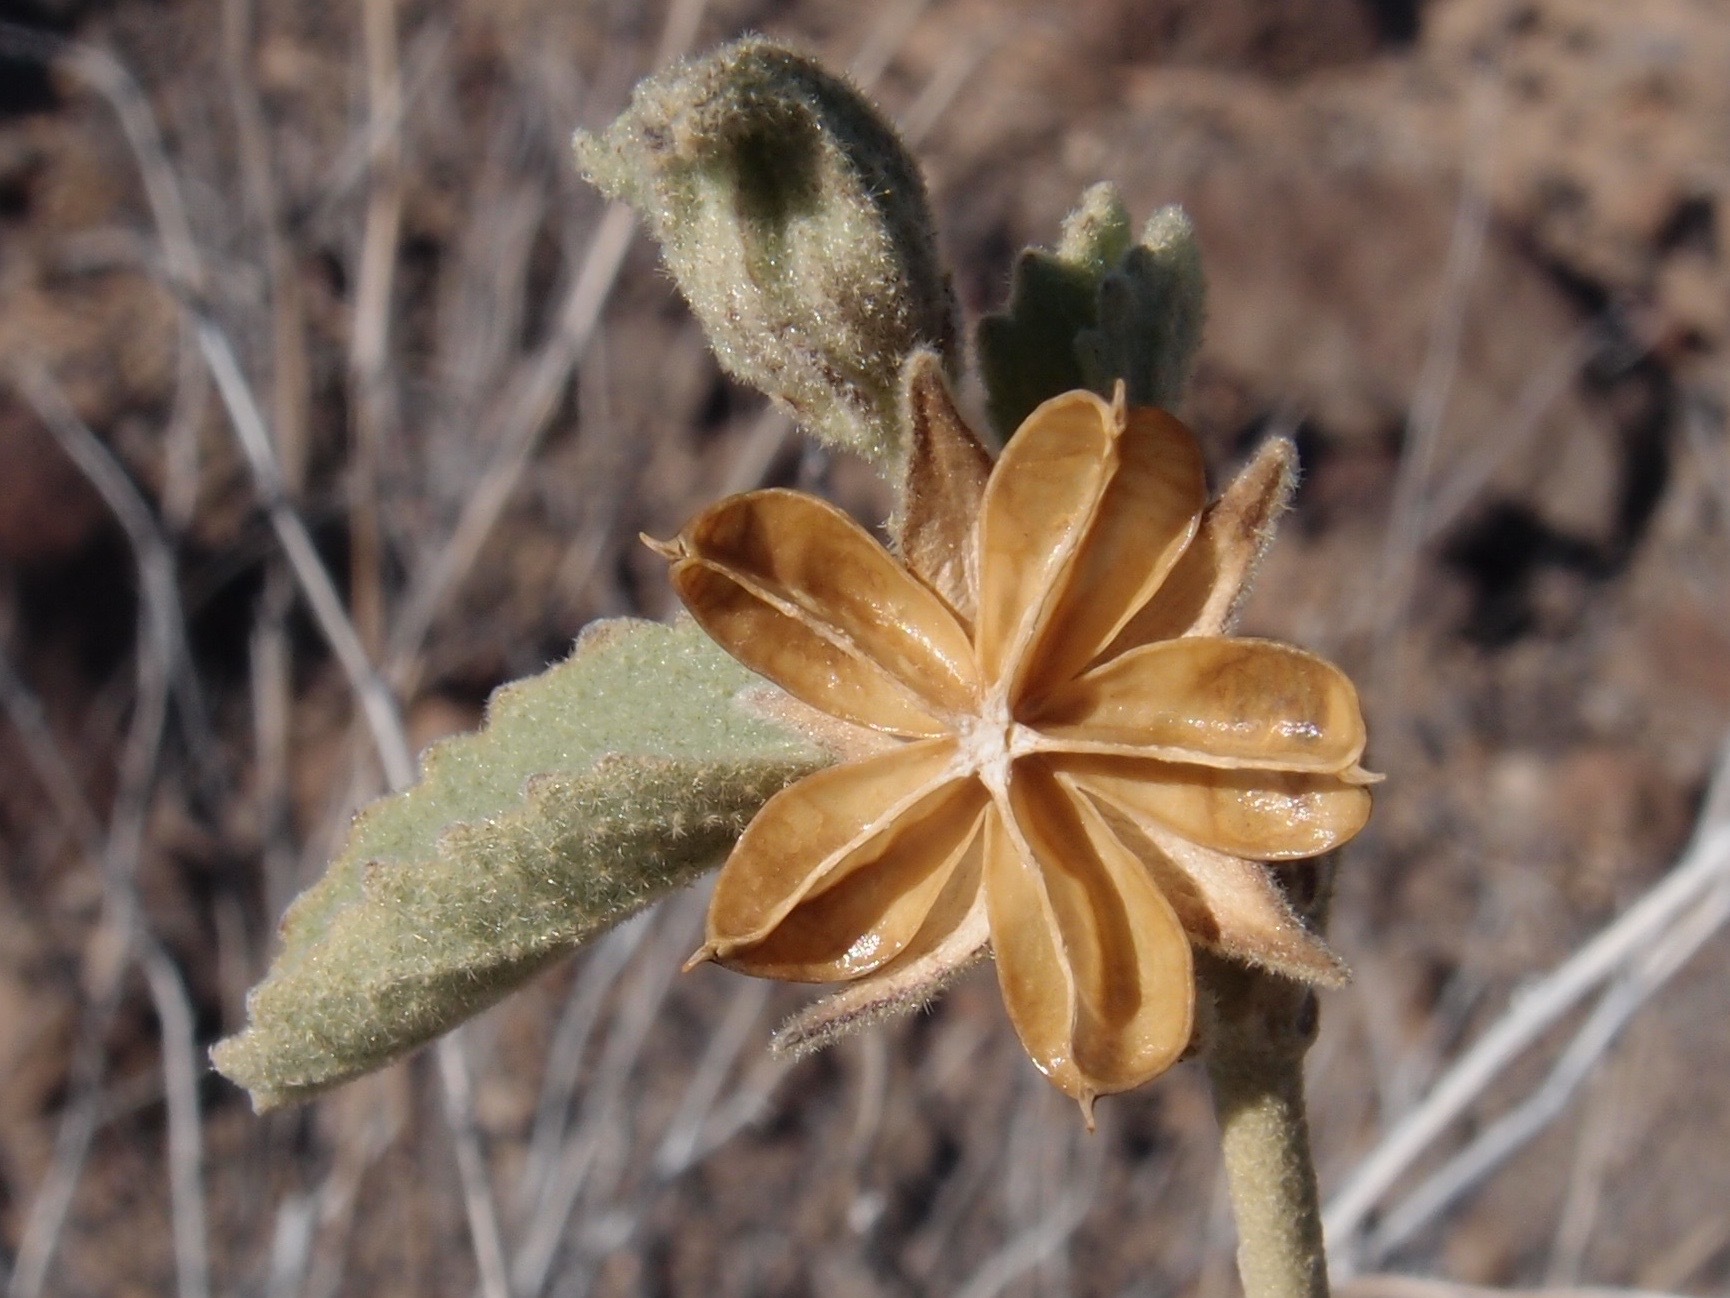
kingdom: Plantae
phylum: Tracheophyta
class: Magnoliopsida
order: Malvales
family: Malvaceae
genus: Hibiscus
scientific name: Hibiscus denudatus
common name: Paleface
